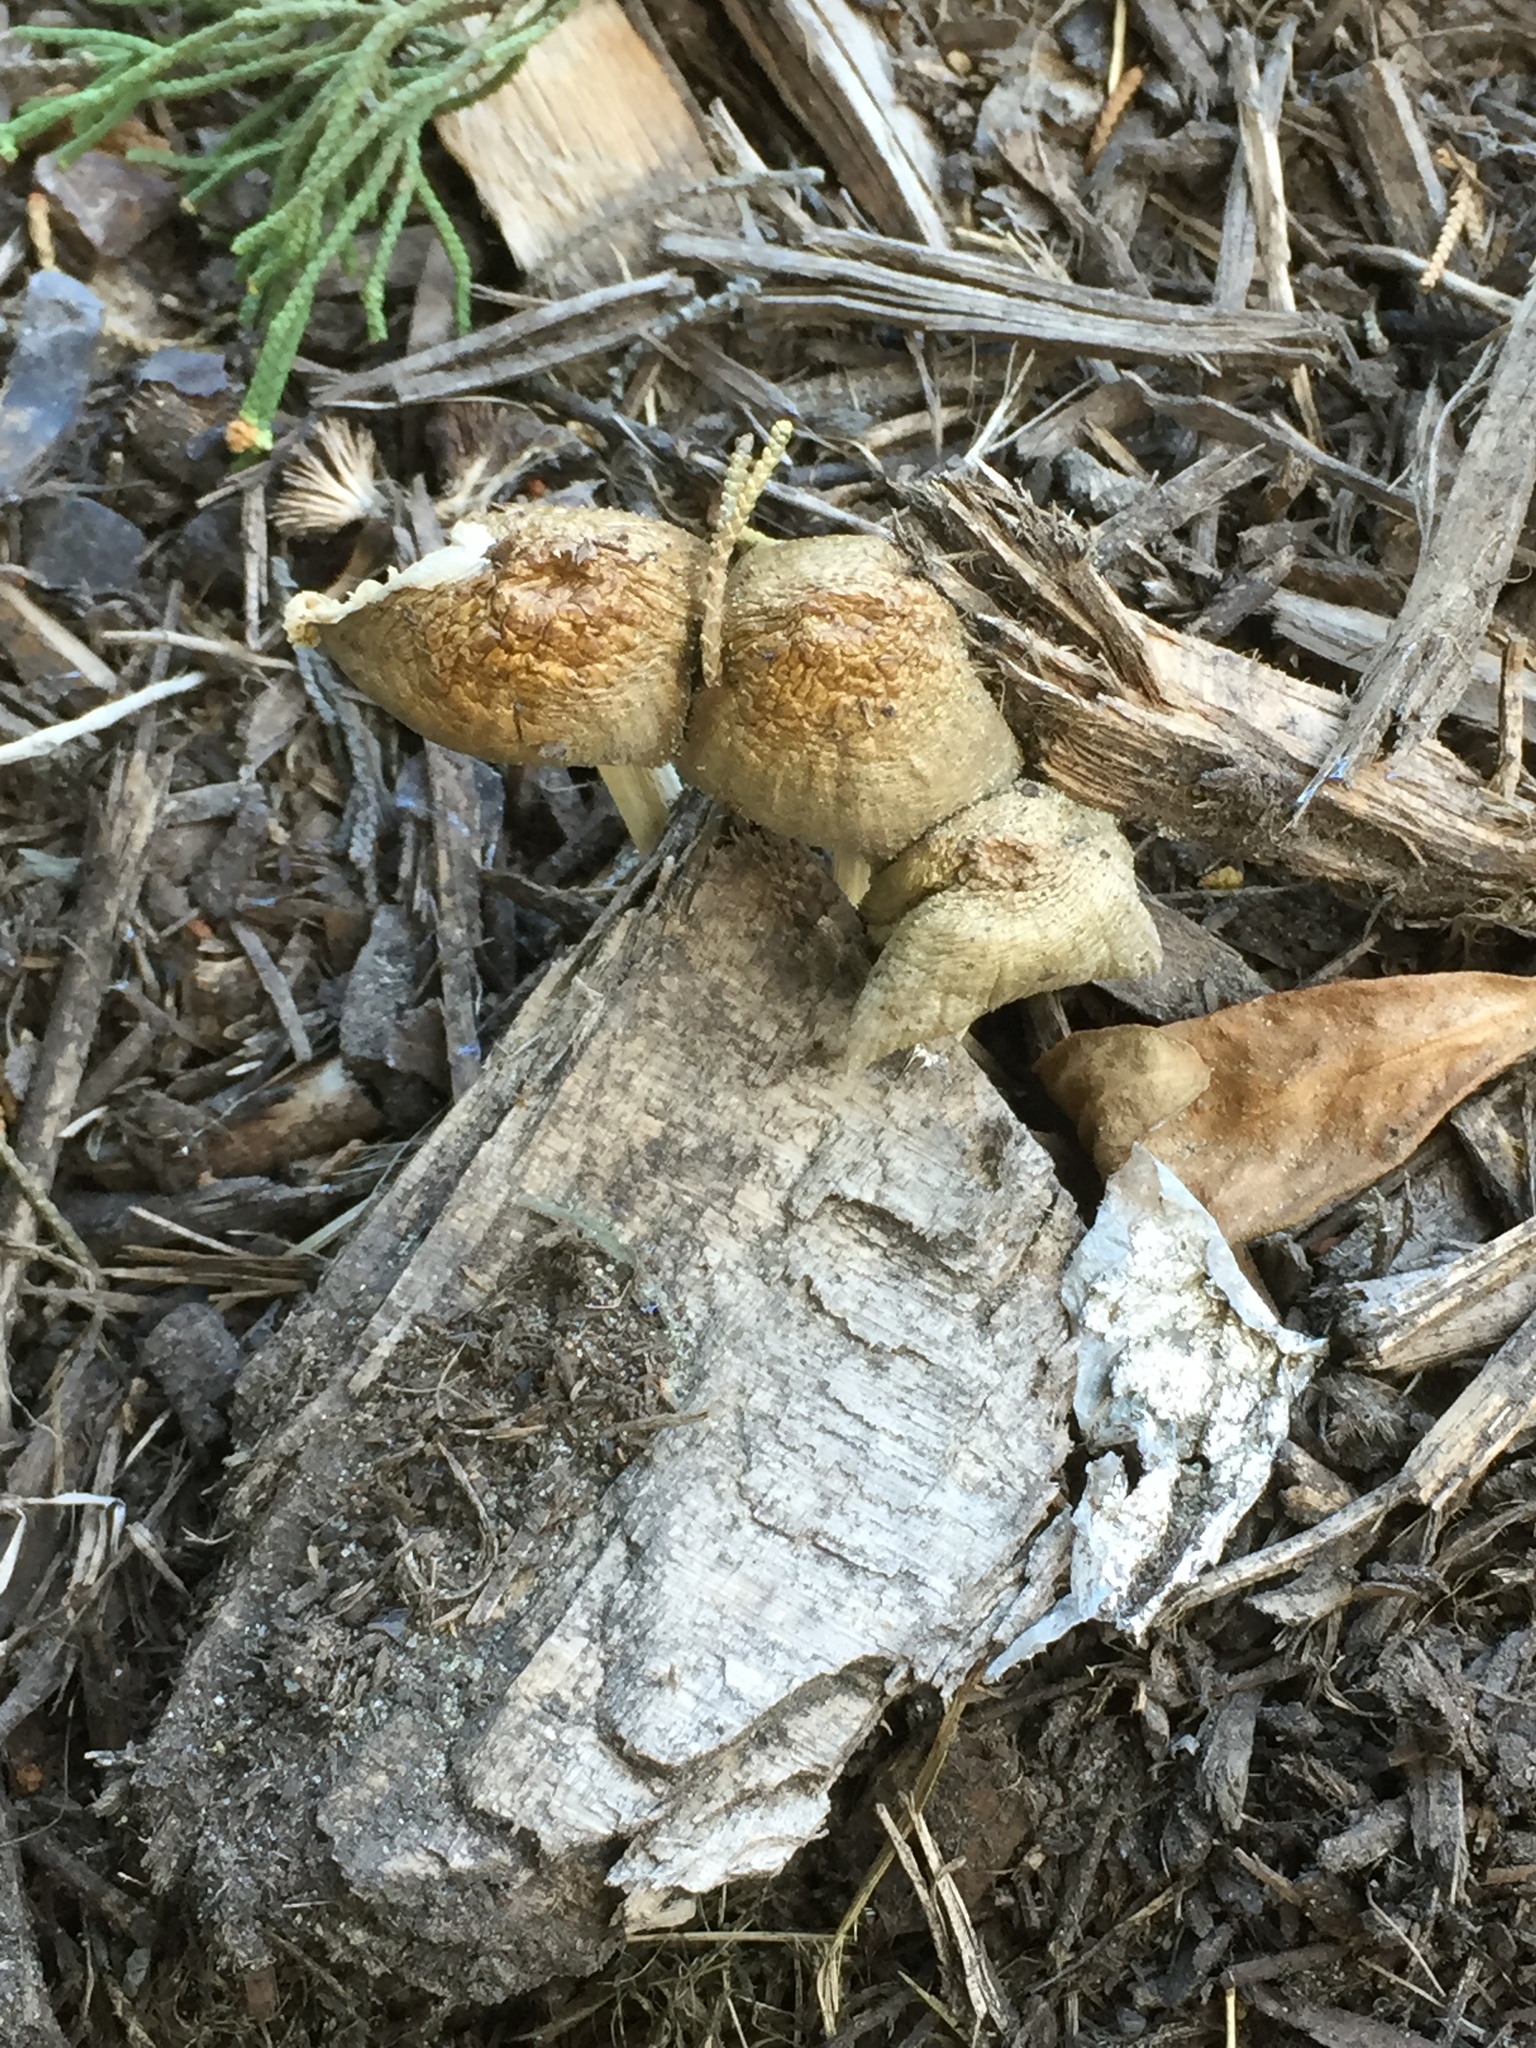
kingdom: Fungi
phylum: Basidiomycota
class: Agaricomycetes
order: Agaricales
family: Bolbitiaceae
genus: Bolbitius
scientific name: Bolbitius titubans
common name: Yellow fieldcap
